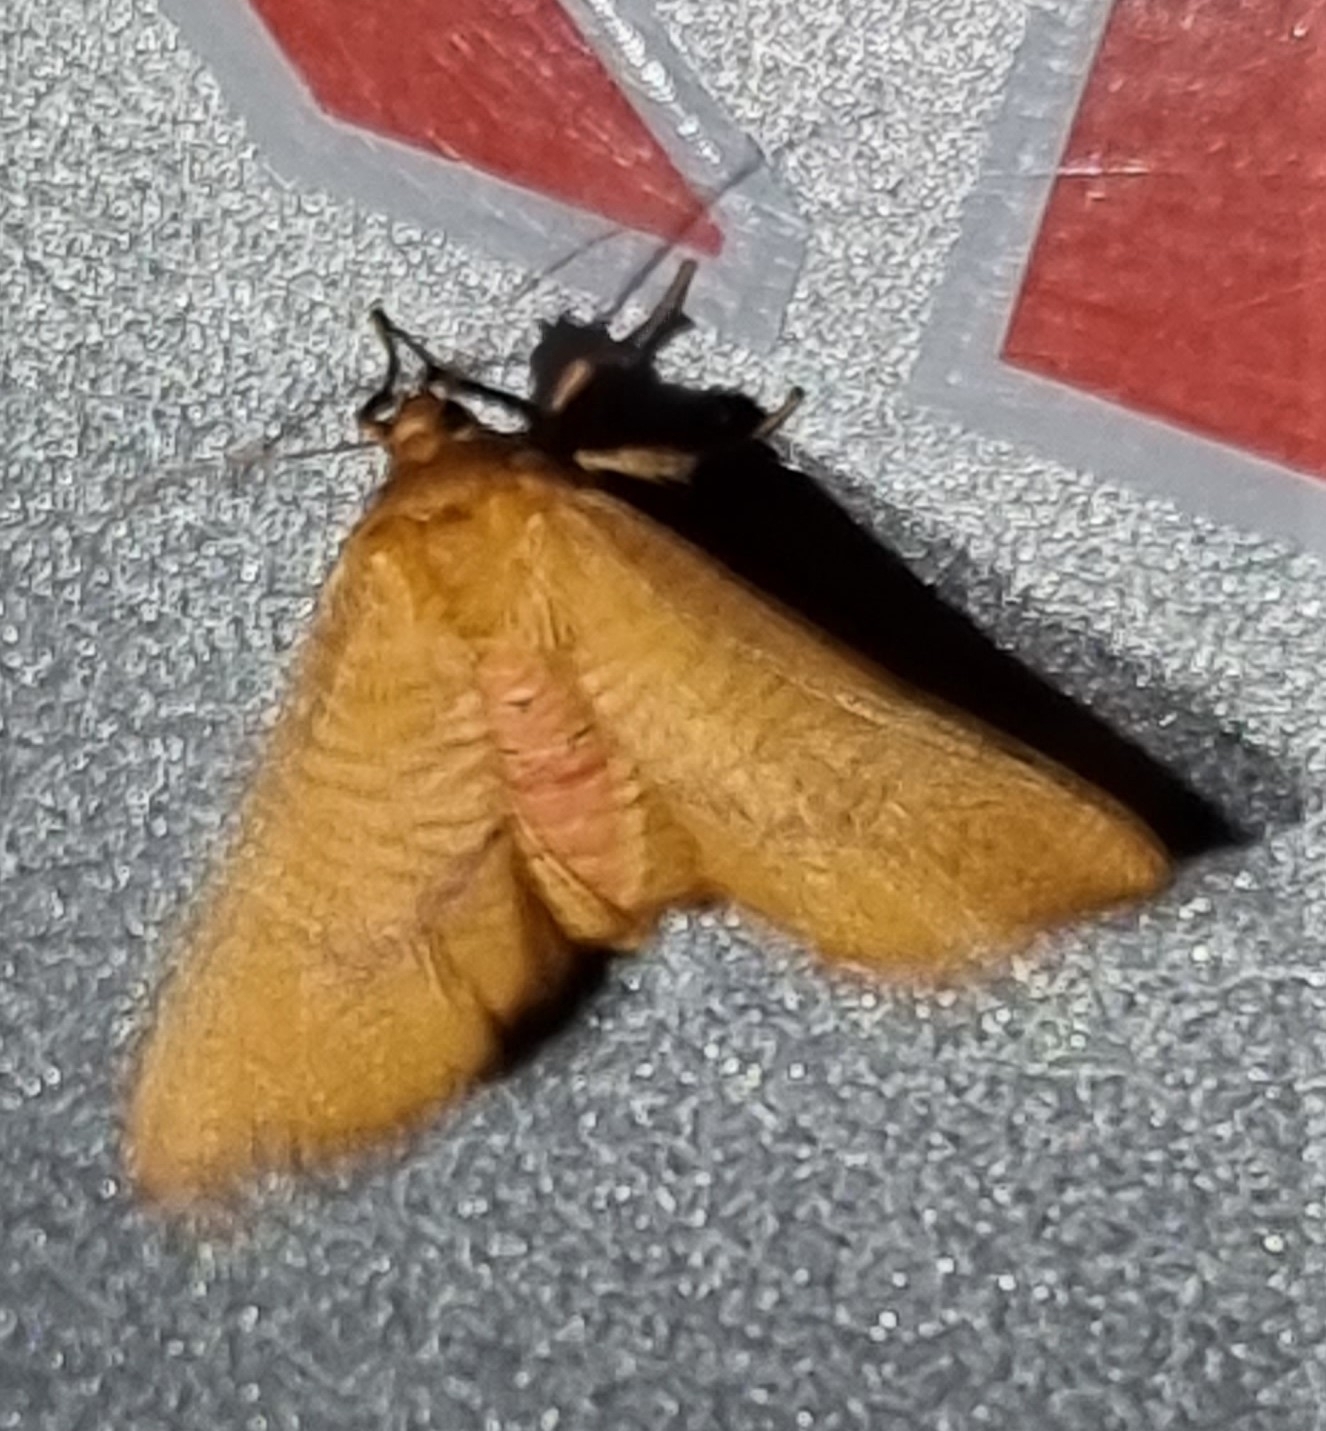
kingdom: Animalia
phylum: Arthropoda
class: Insecta
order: Lepidoptera
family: Thyrididae
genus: Aglaopus
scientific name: Aglaopus pyrrhata
